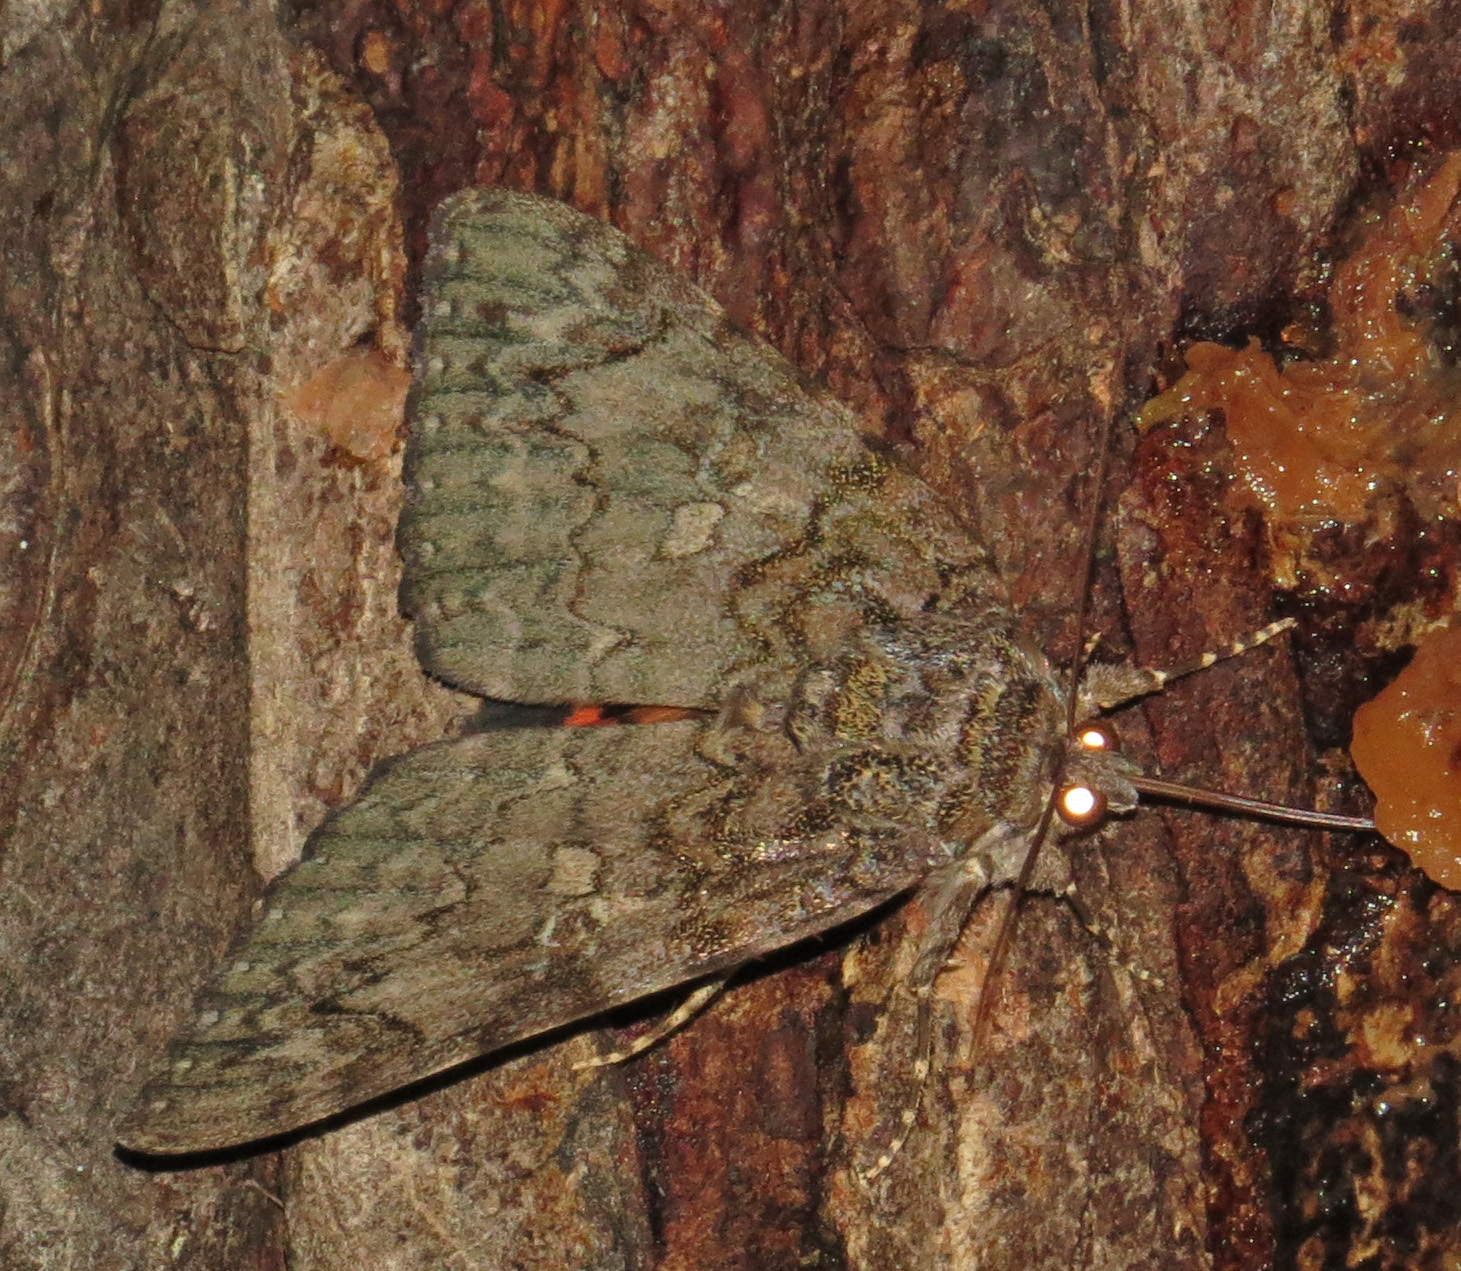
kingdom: Animalia
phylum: Arthropoda
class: Insecta
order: Lepidoptera
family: Erebidae
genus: Catocala
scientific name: Catocala umbrosa
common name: Umber underwing
